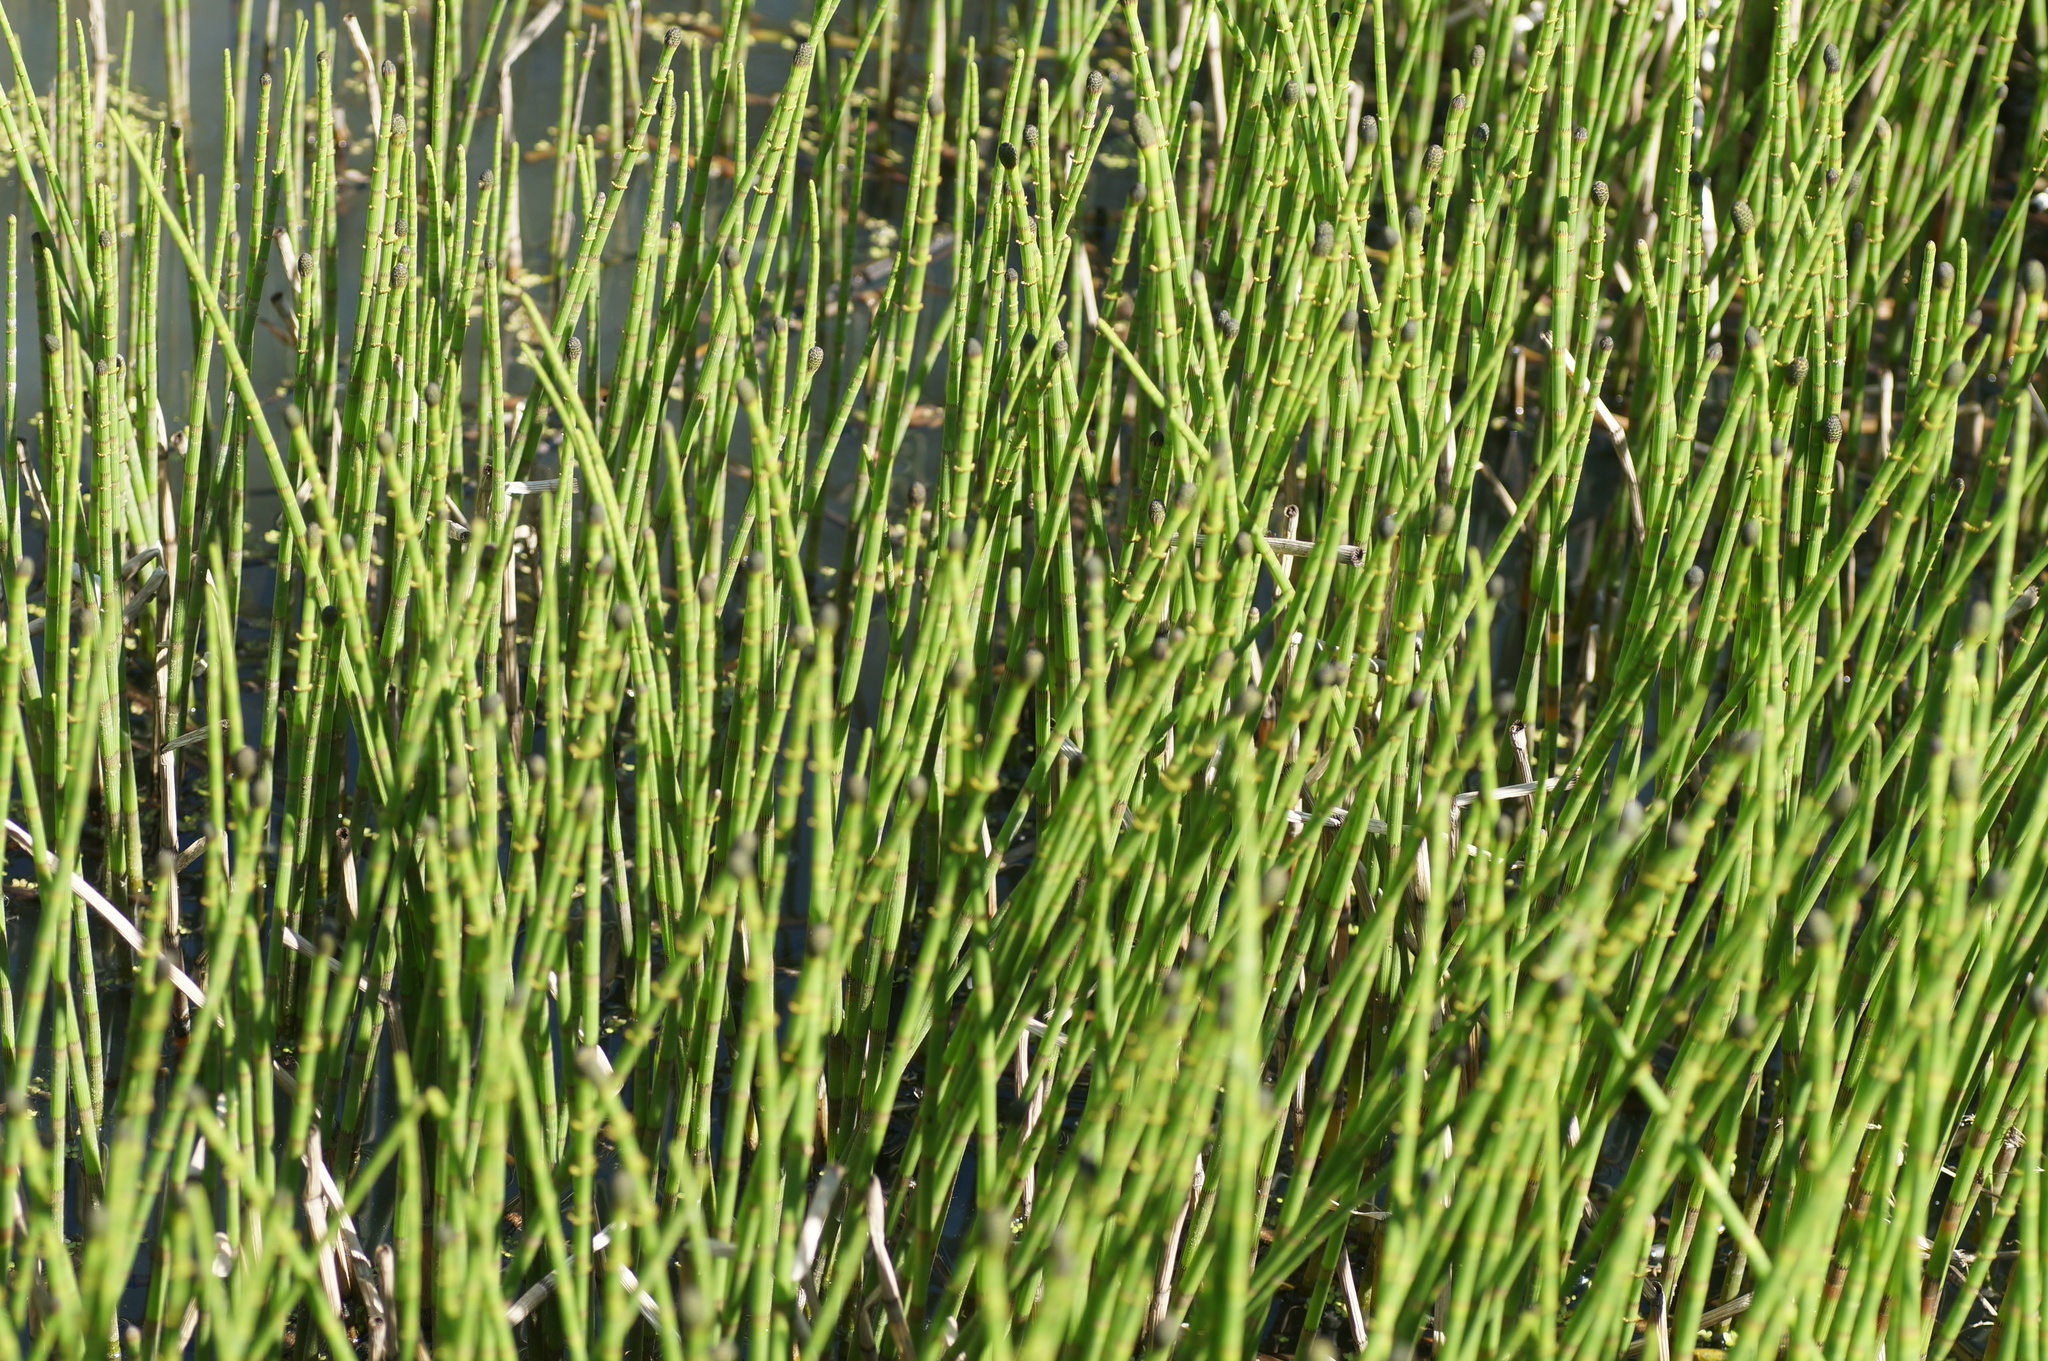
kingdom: Plantae
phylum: Tracheophyta
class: Polypodiopsida
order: Equisetales
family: Equisetaceae
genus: Equisetum
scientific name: Equisetum fluviatile
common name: Water horsetail
